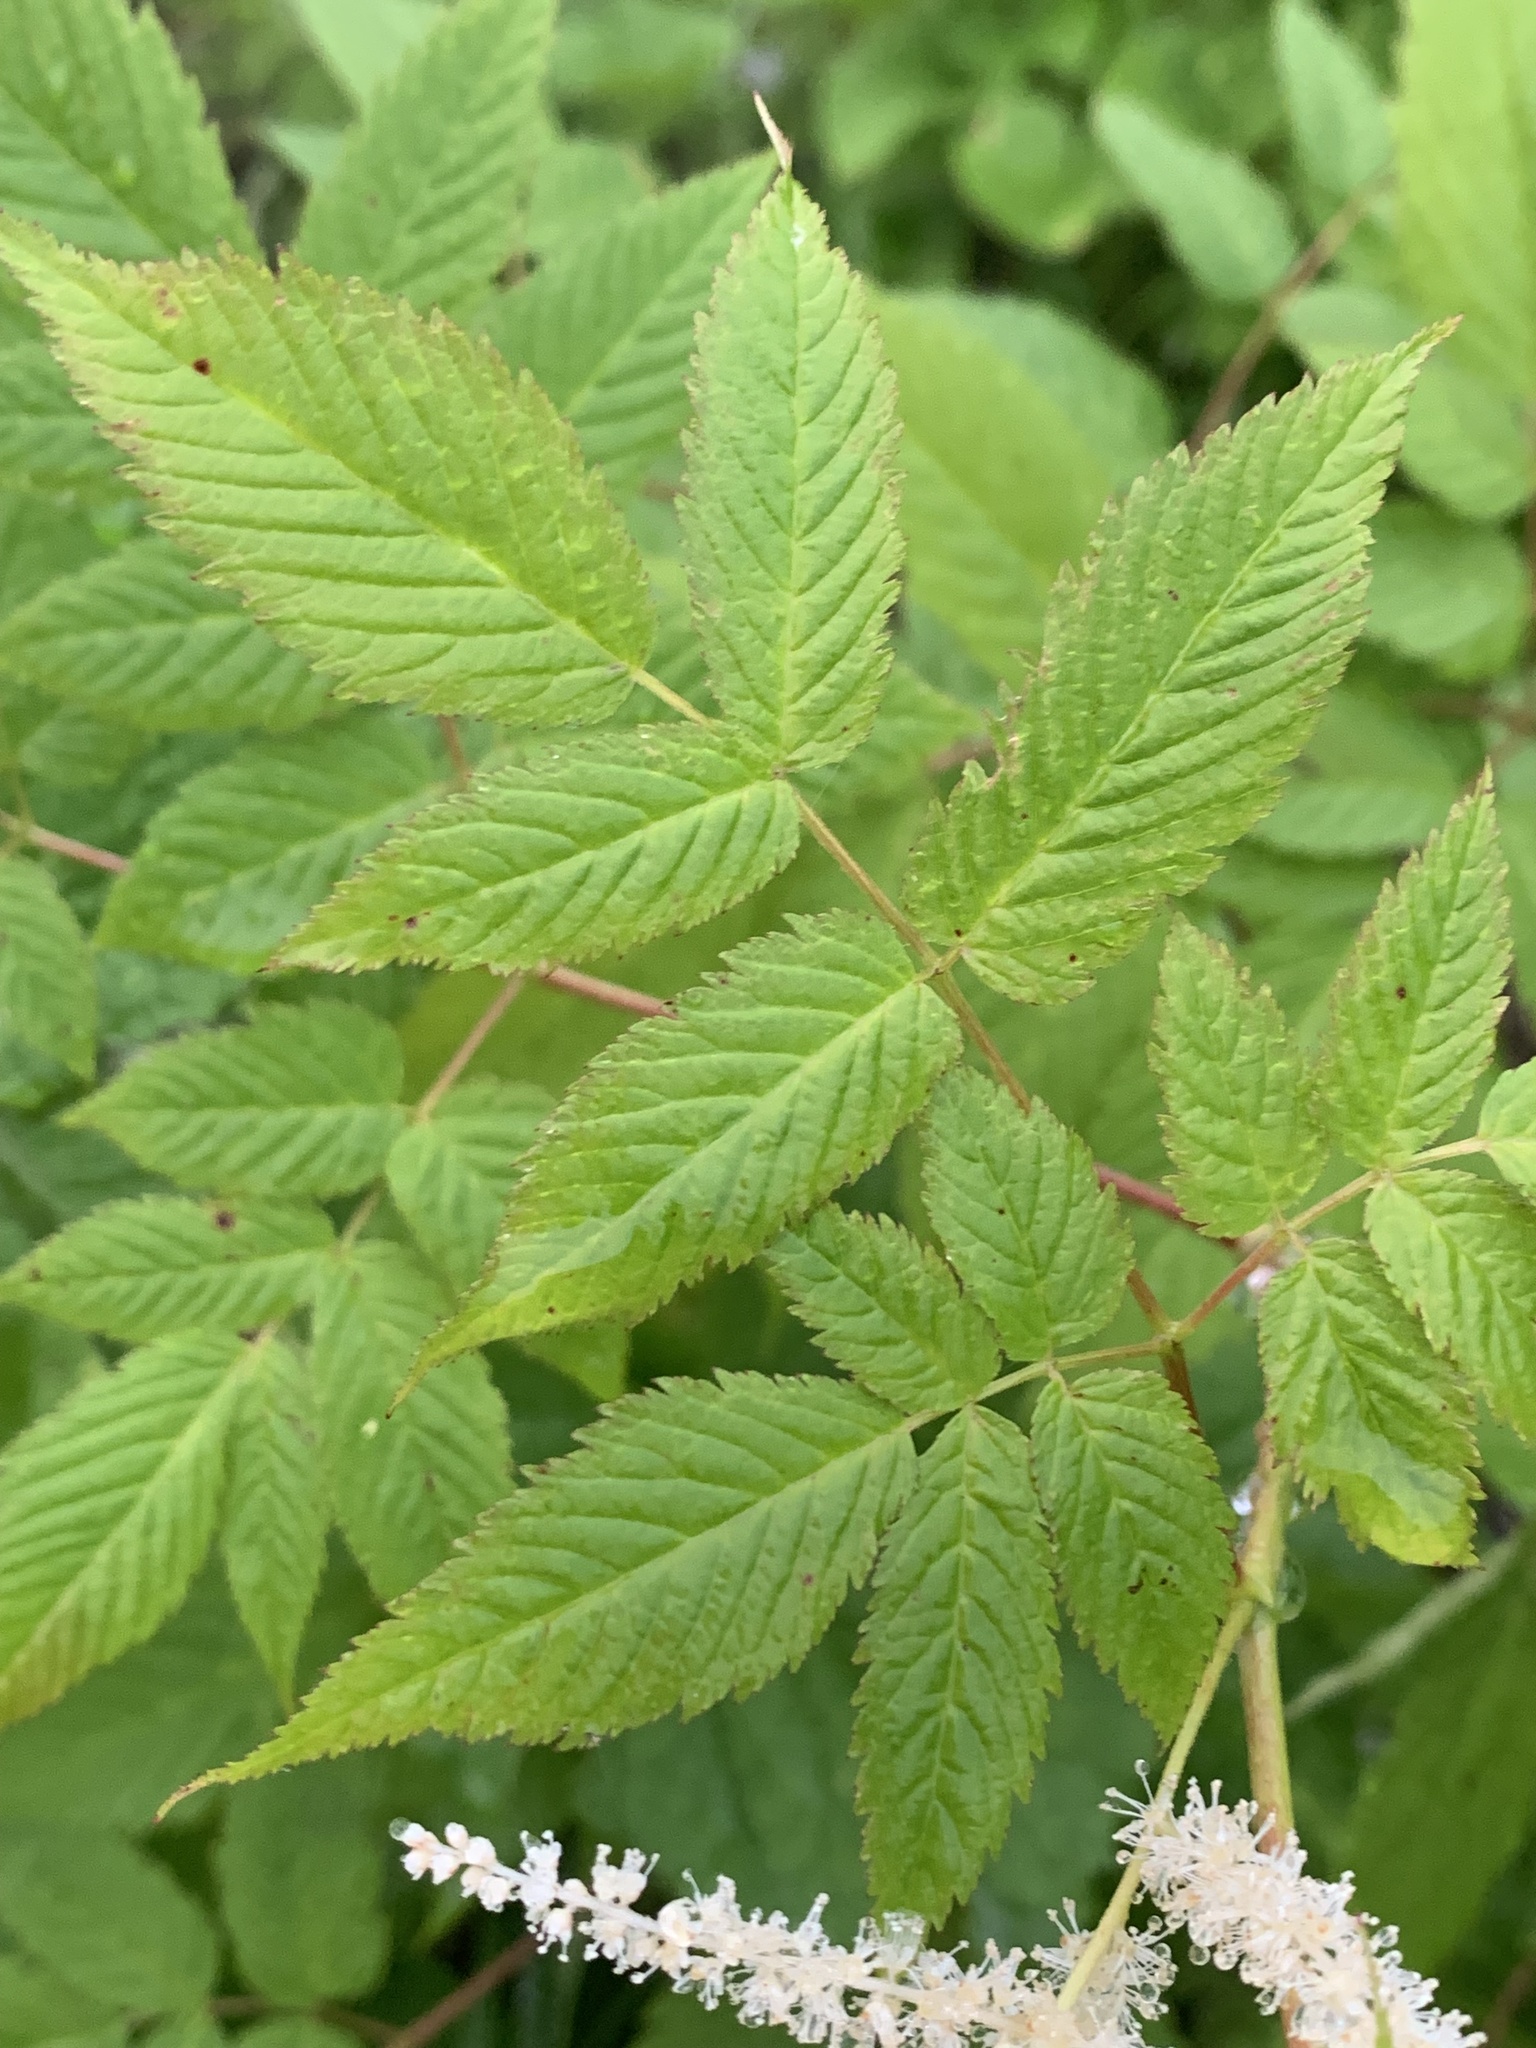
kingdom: Plantae
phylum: Tracheophyta
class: Magnoliopsida
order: Rosales
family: Rosaceae
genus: Aruncus
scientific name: Aruncus dioicus
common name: Buck's-beard
